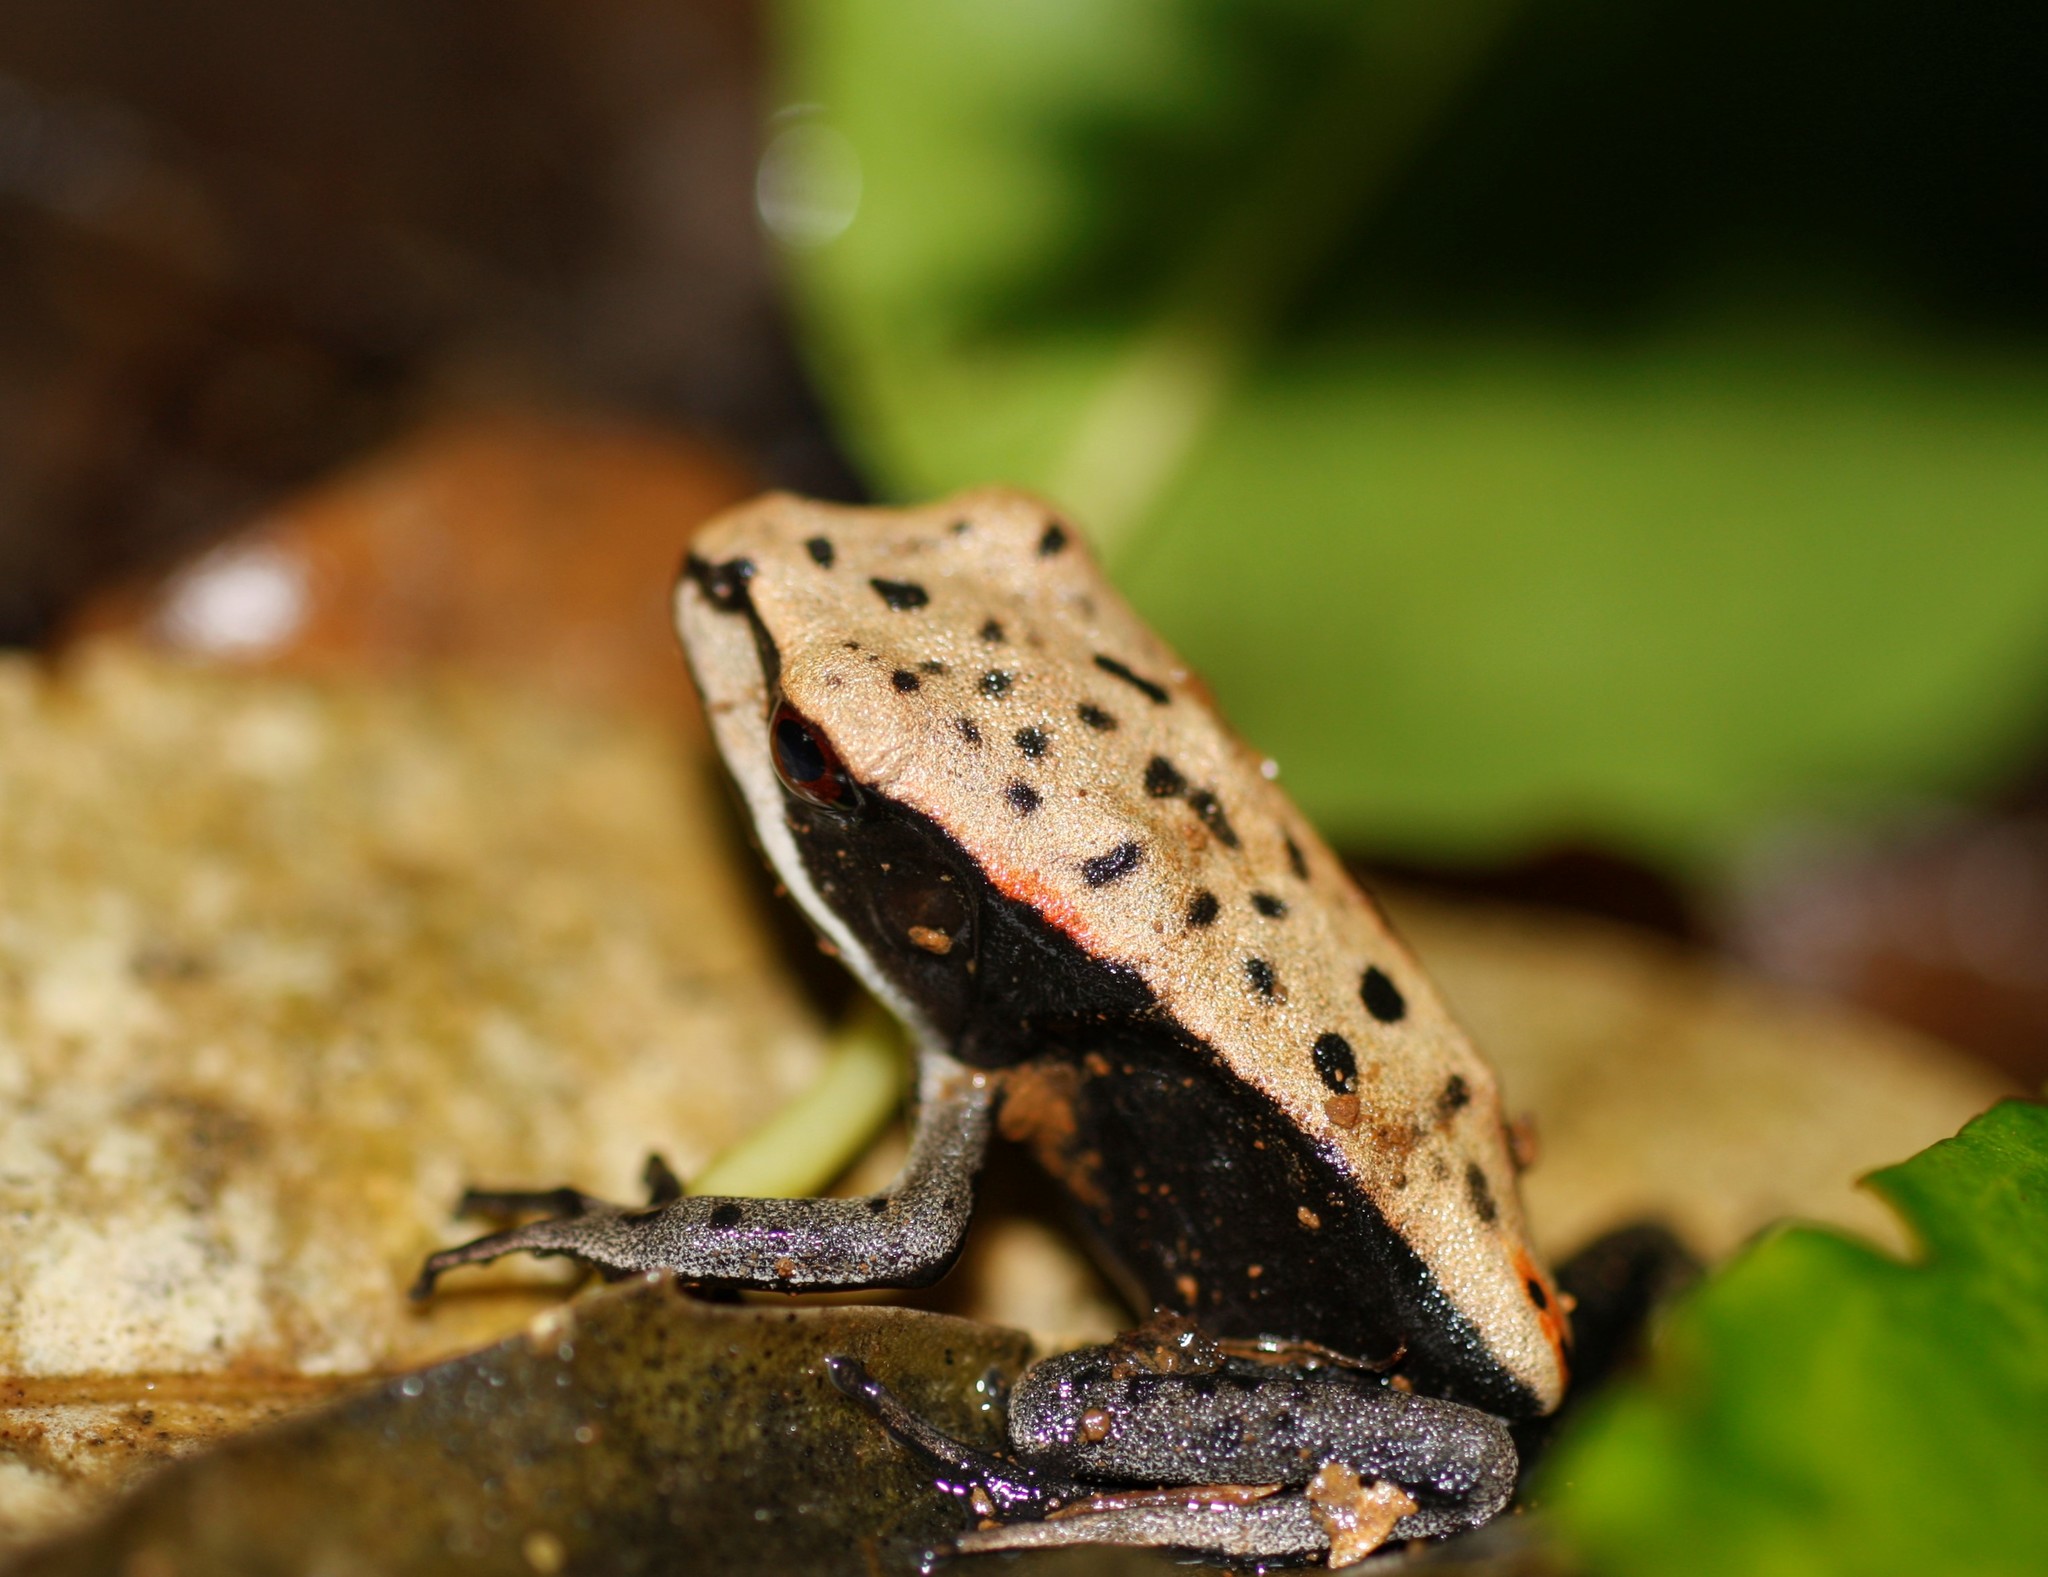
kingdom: Animalia
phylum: Chordata
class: Amphibia
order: Anura
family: Ranidae
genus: Clinotarsus
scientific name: Clinotarsus curtipes
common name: Bicoloured frog
